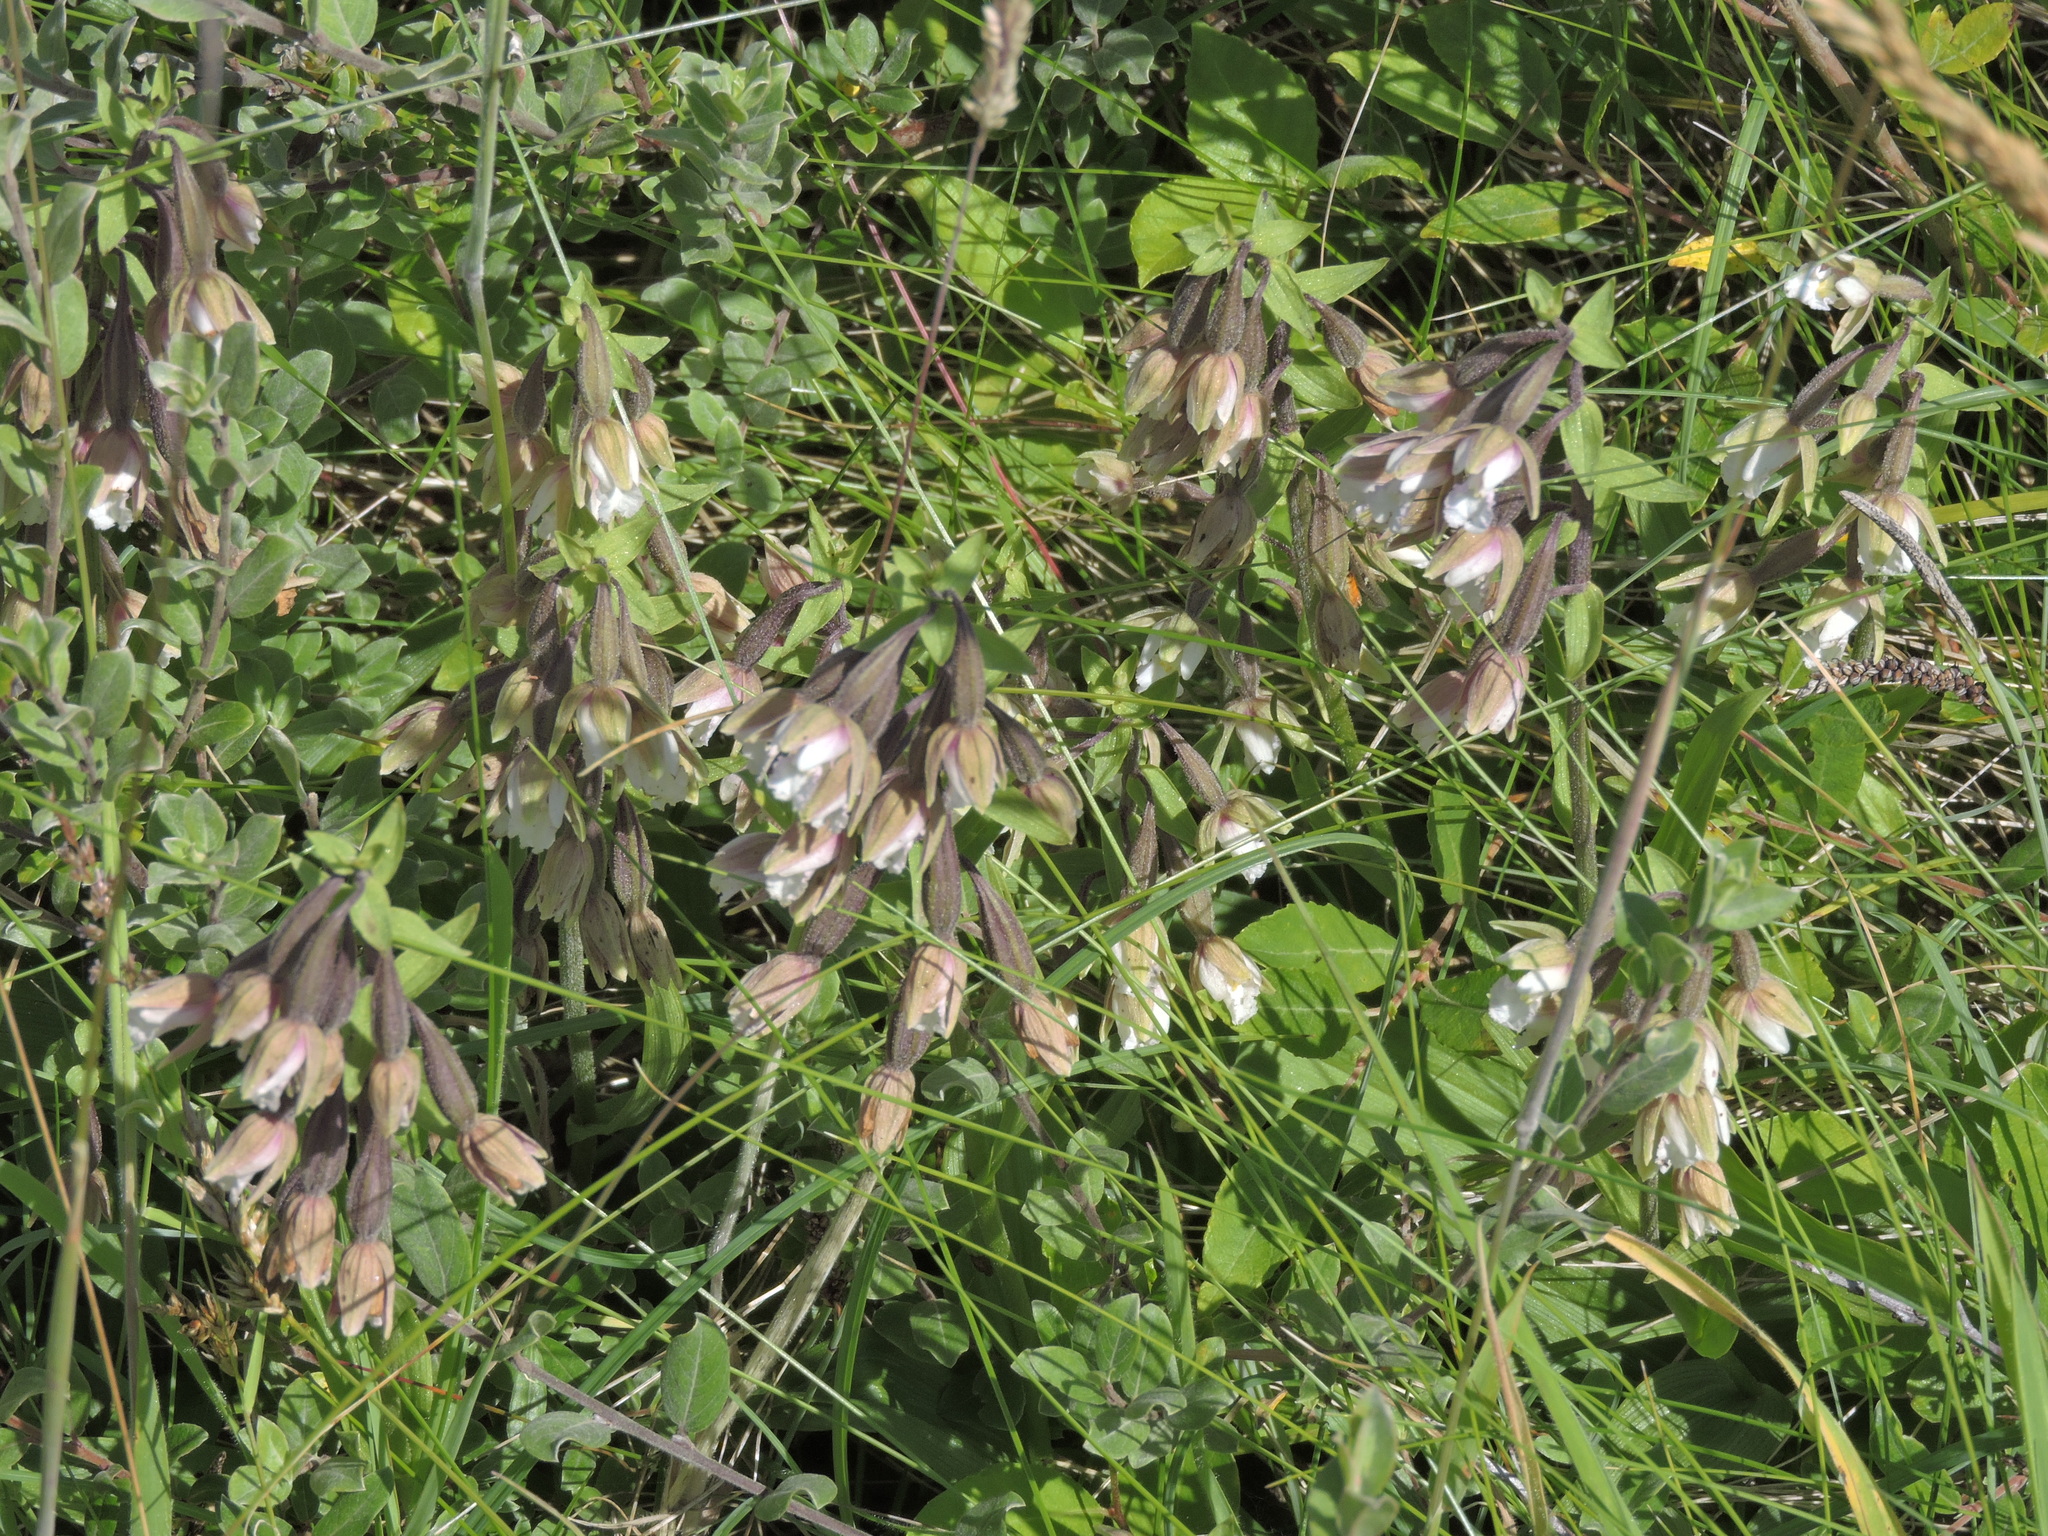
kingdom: Plantae
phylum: Tracheophyta
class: Liliopsida
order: Asparagales
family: Orchidaceae
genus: Epipactis
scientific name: Epipactis palustris
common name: Marsh helleborine
